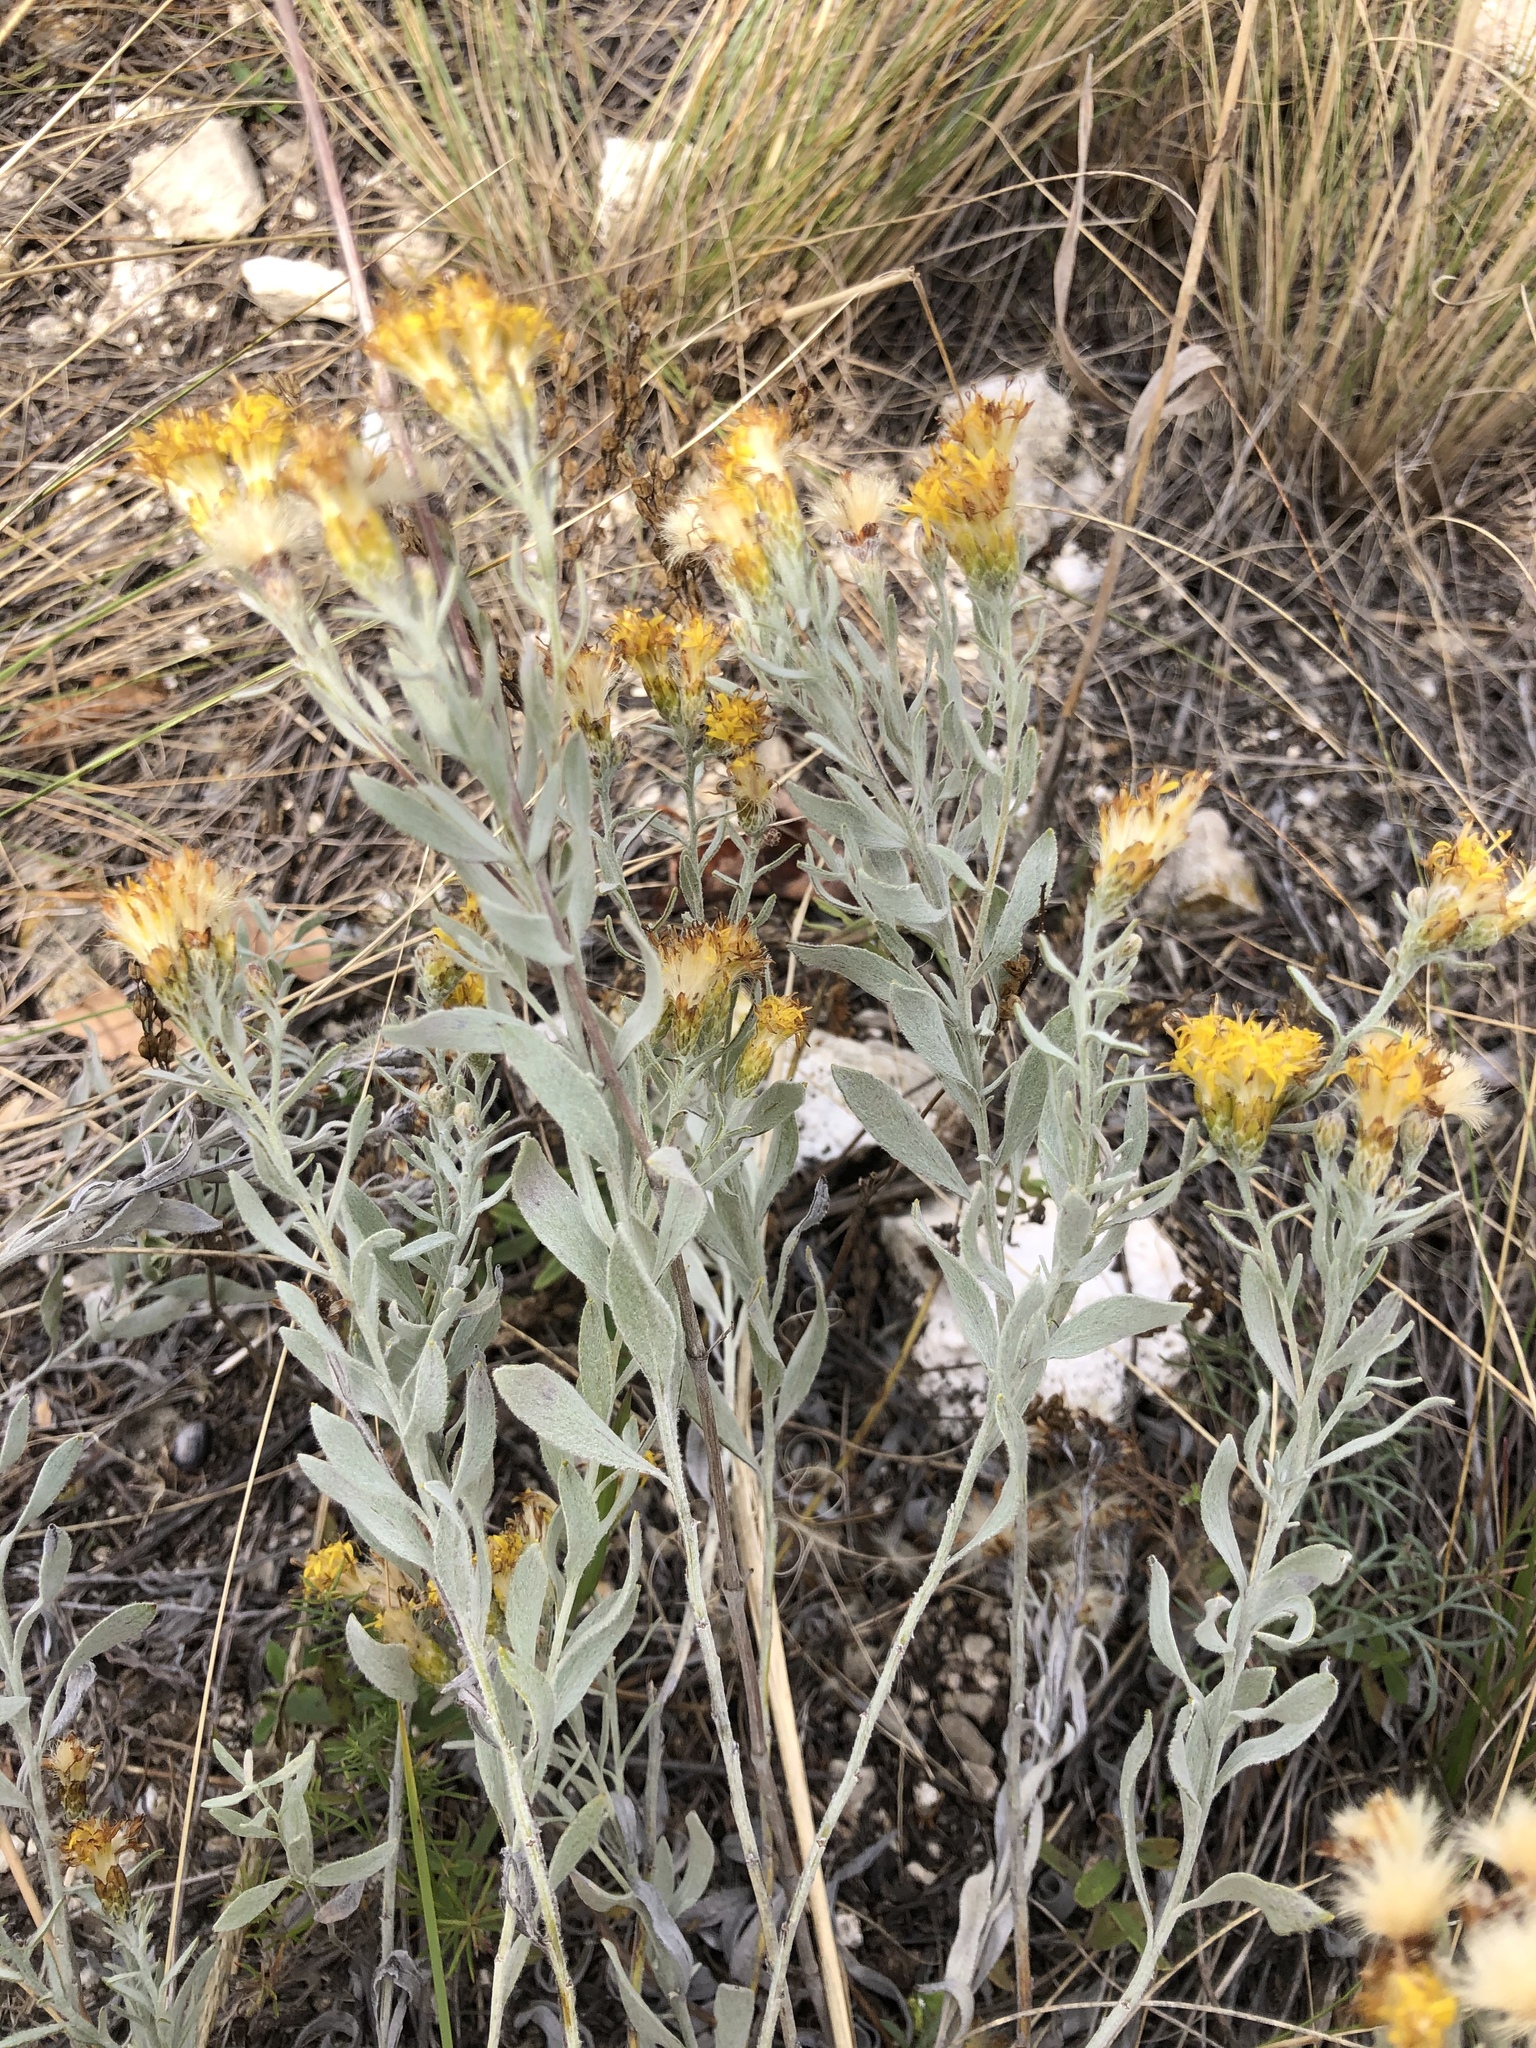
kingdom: Plantae
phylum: Tracheophyta
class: Magnoliopsida
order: Asterales
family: Asteraceae
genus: Galatella
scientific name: Galatella villosa
